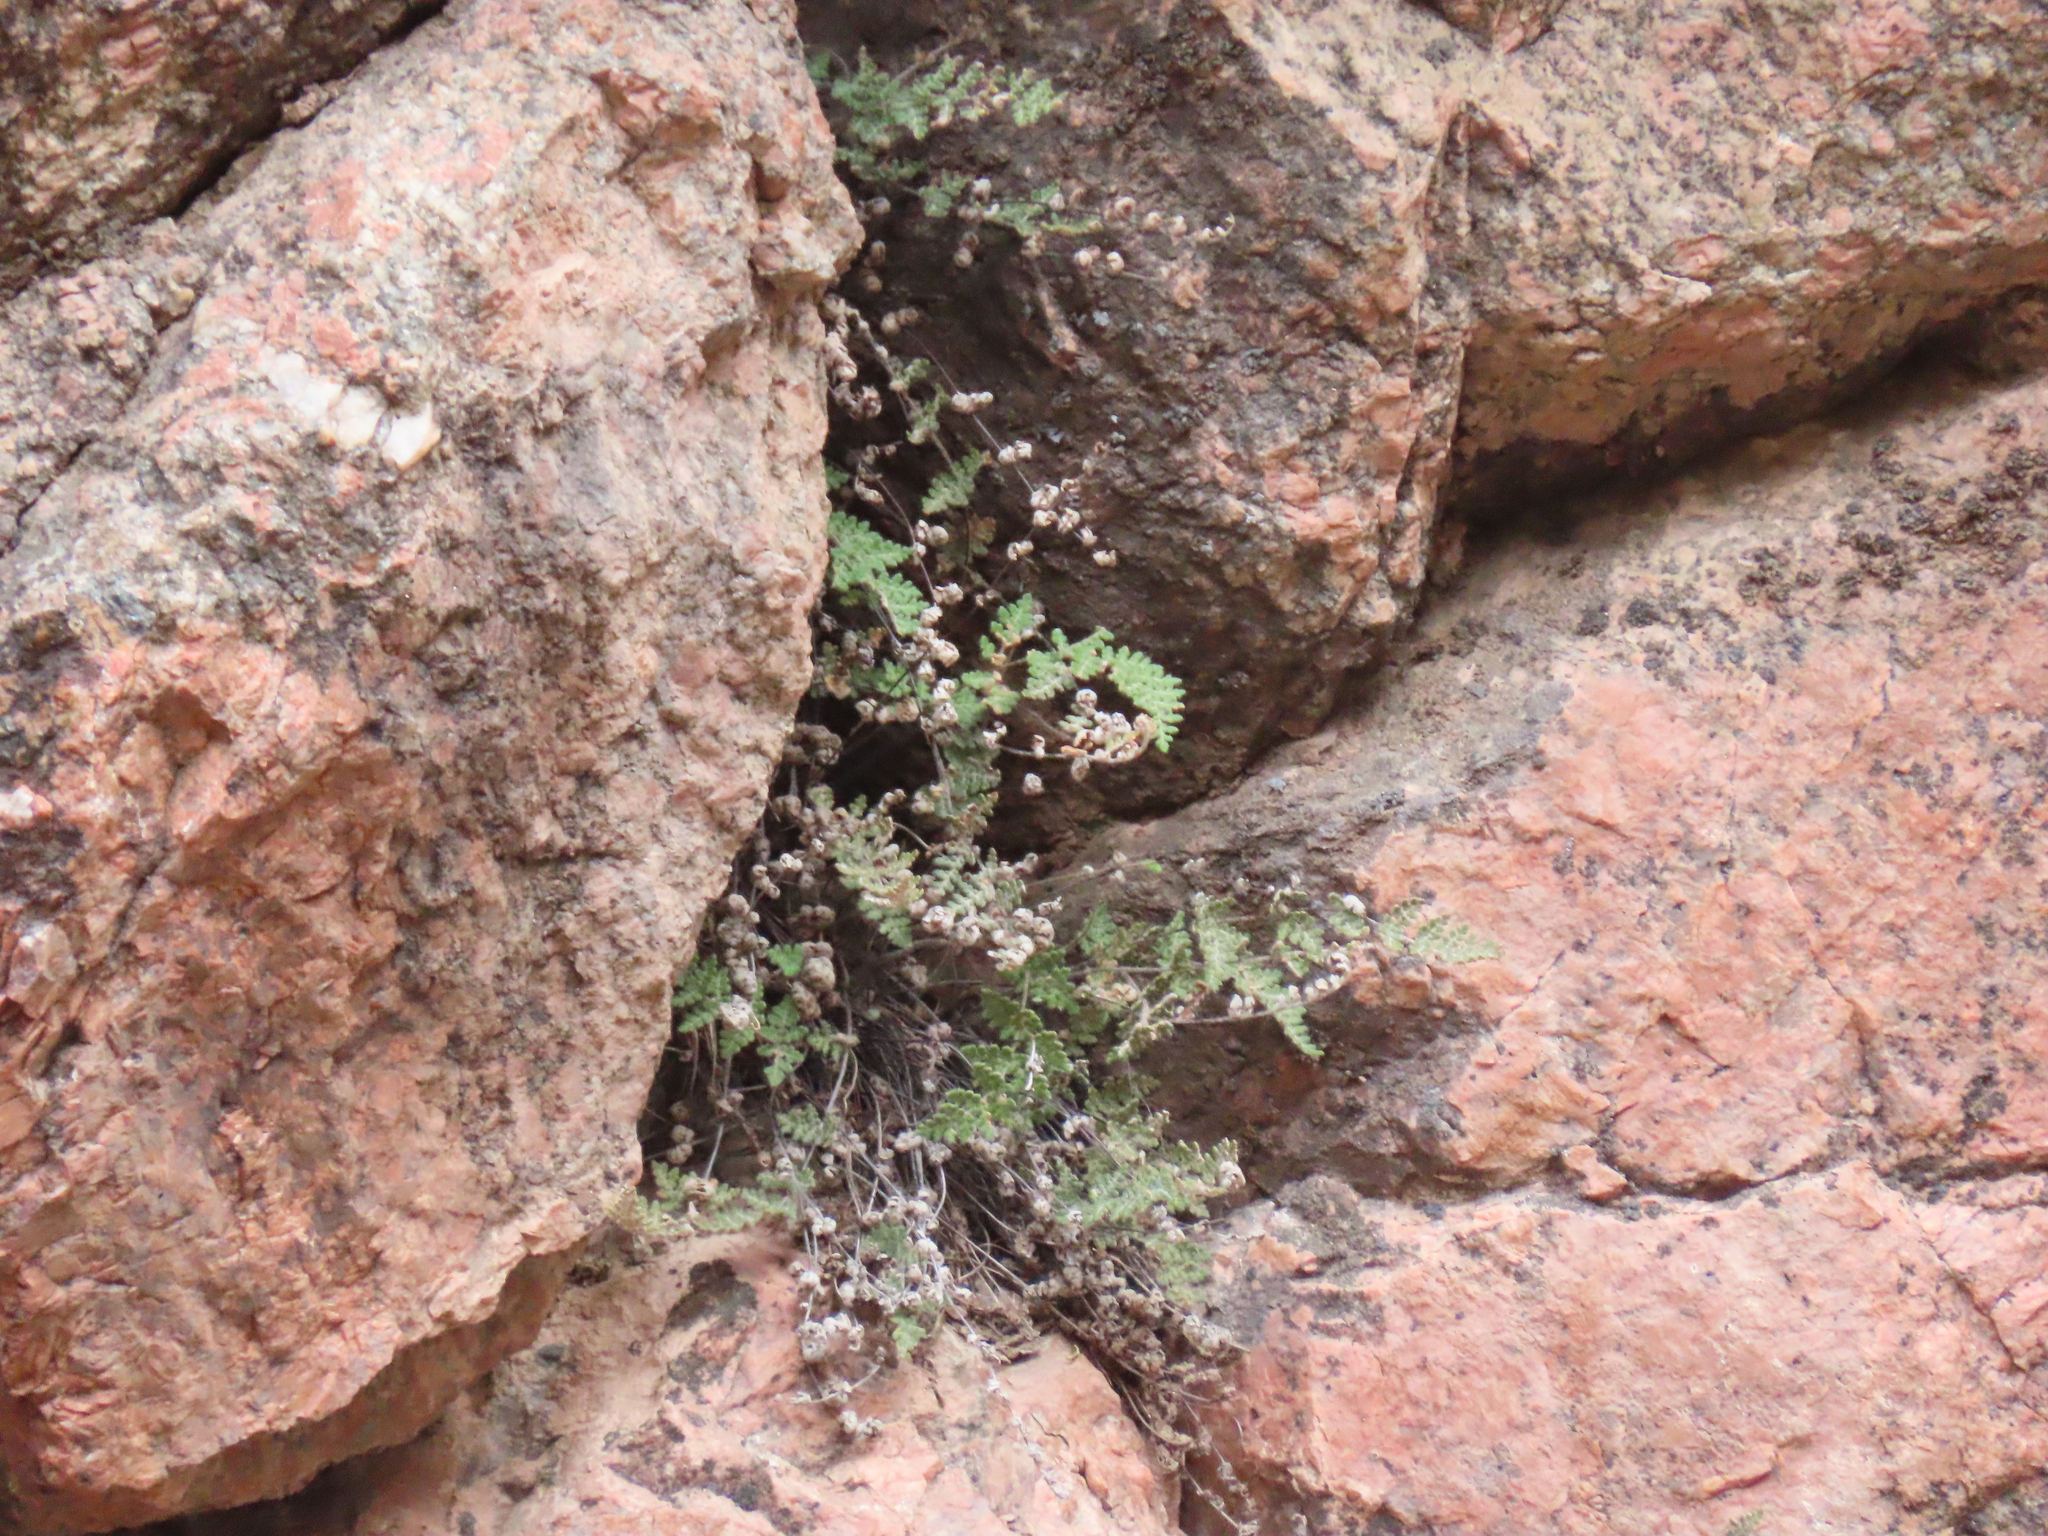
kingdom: Plantae
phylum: Tracheophyta
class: Polypodiopsida
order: Polypodiales
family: Pteridaceae
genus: Myriopteris
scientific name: Myriopteris gracilis
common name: Fee's lip fern
